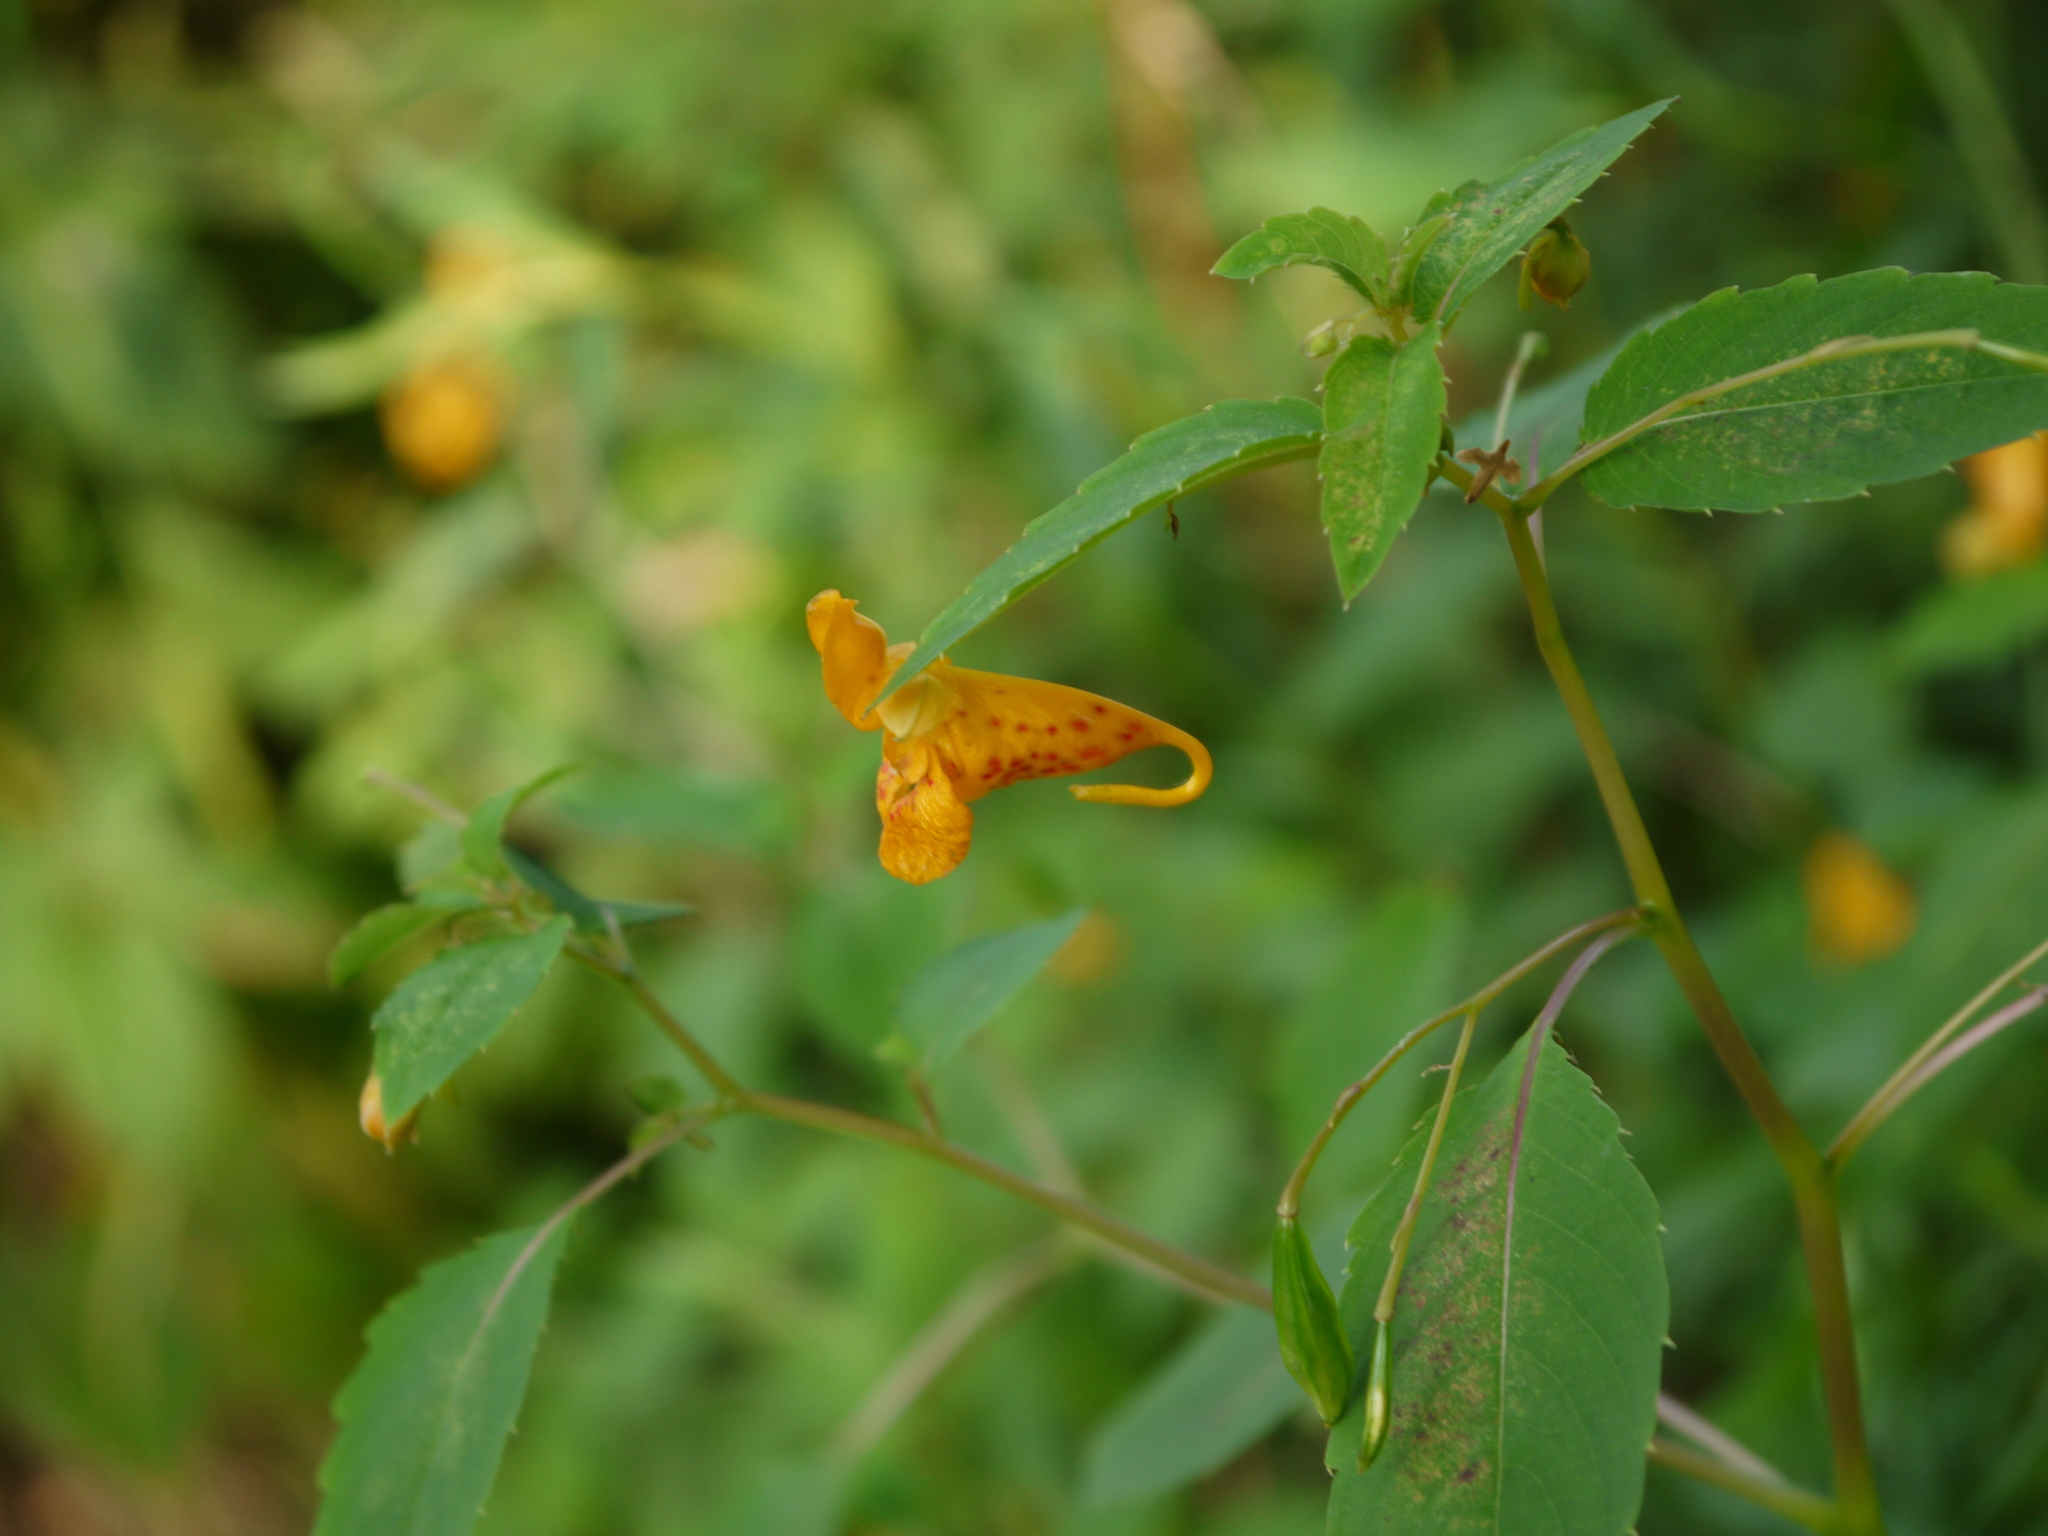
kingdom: Plantae
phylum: Tracheophyta
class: Magnoliopsida
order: Ericales
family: Balsaminaceae
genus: Impatiens
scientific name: Impatiens capensis
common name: Orange balsam
